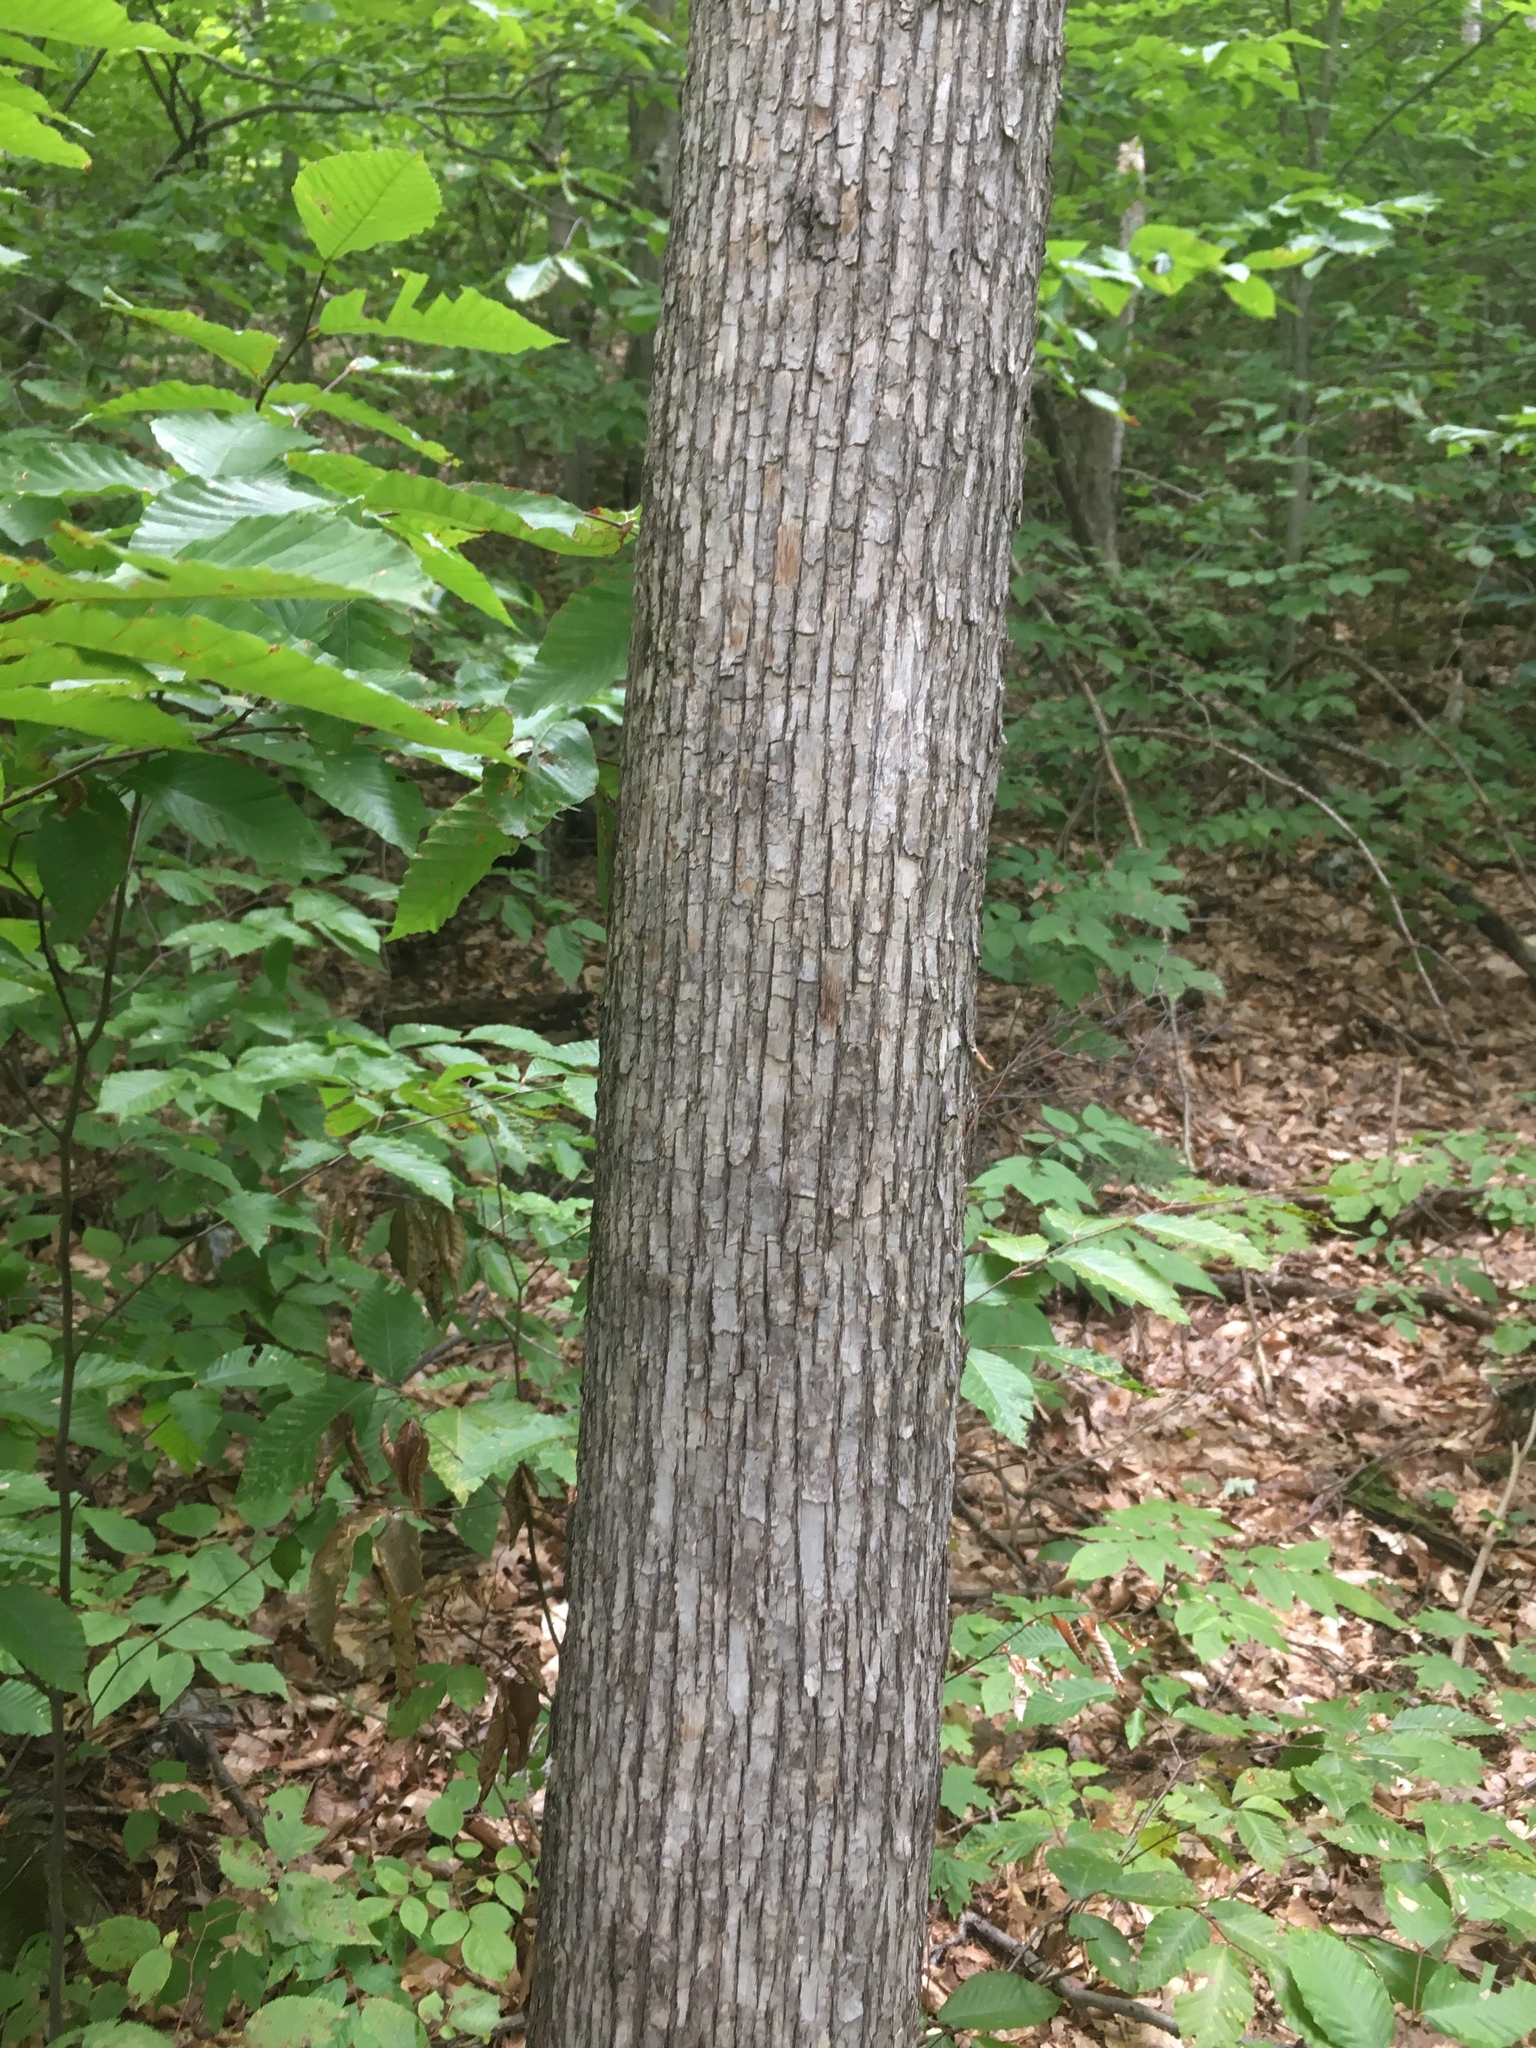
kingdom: Plantae
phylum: Tracheophyta
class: Magnoliopsida
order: Fagales
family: Betulaceae
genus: Ostrya
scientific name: Ostrya virginiana
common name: Ironwood
